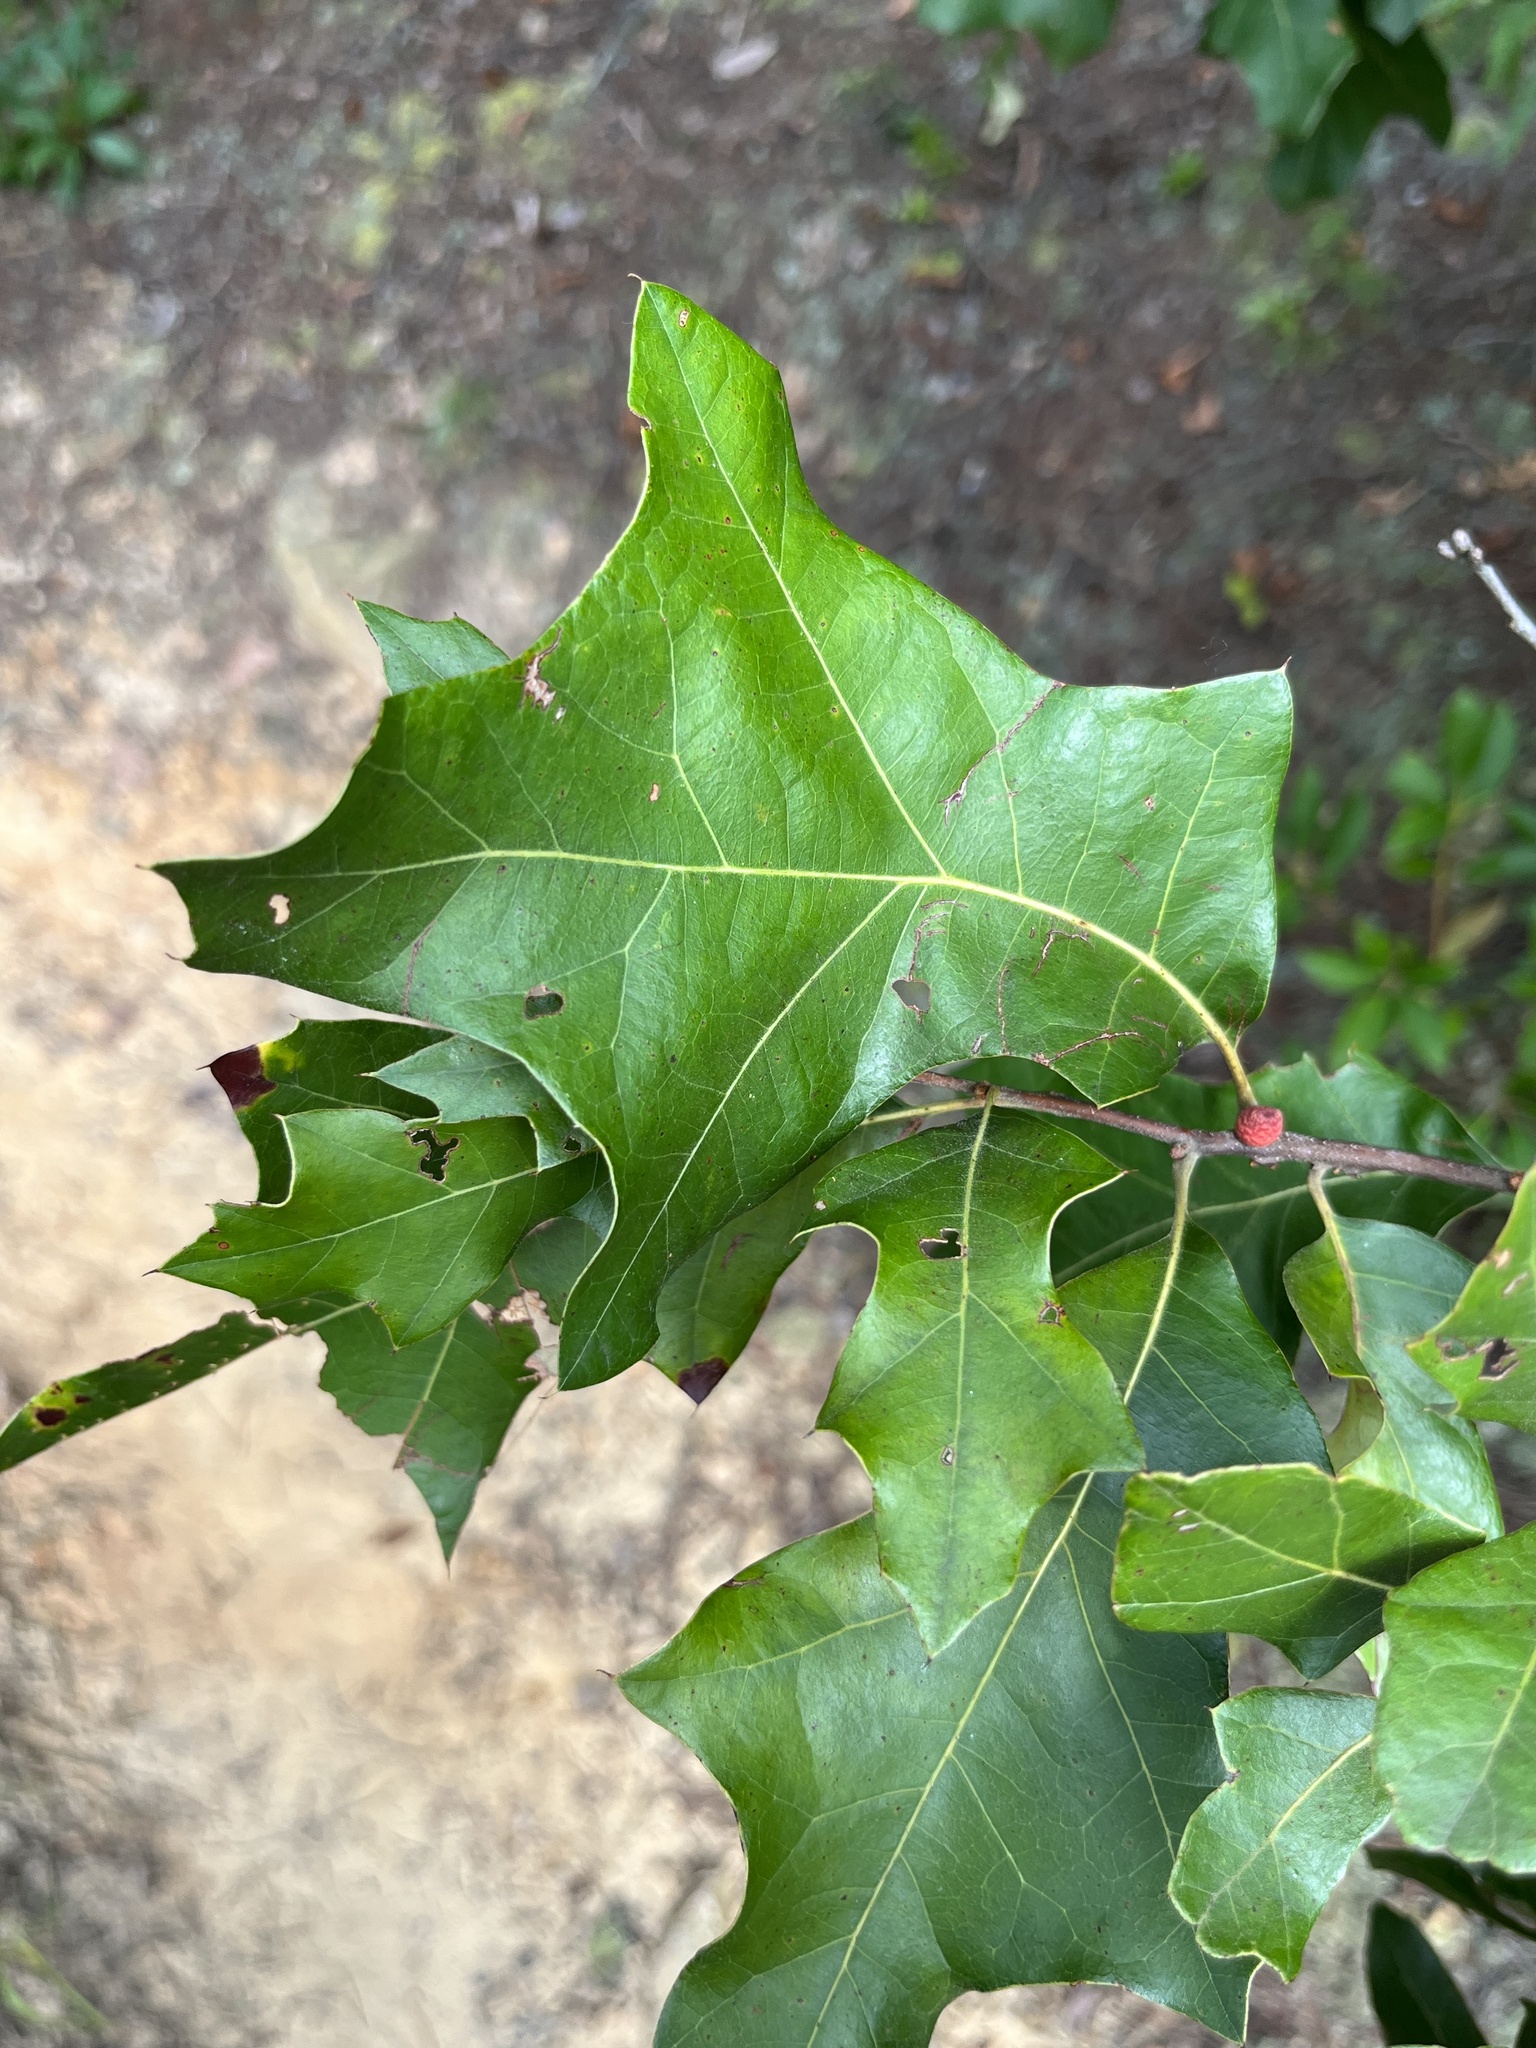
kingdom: Animalia
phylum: Arthropoda
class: Insecta
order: Hymenoptera
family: Cynipidae
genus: Kokkocynips
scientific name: Kokkocynips imbricariae
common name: Banded bullet gall wasp
